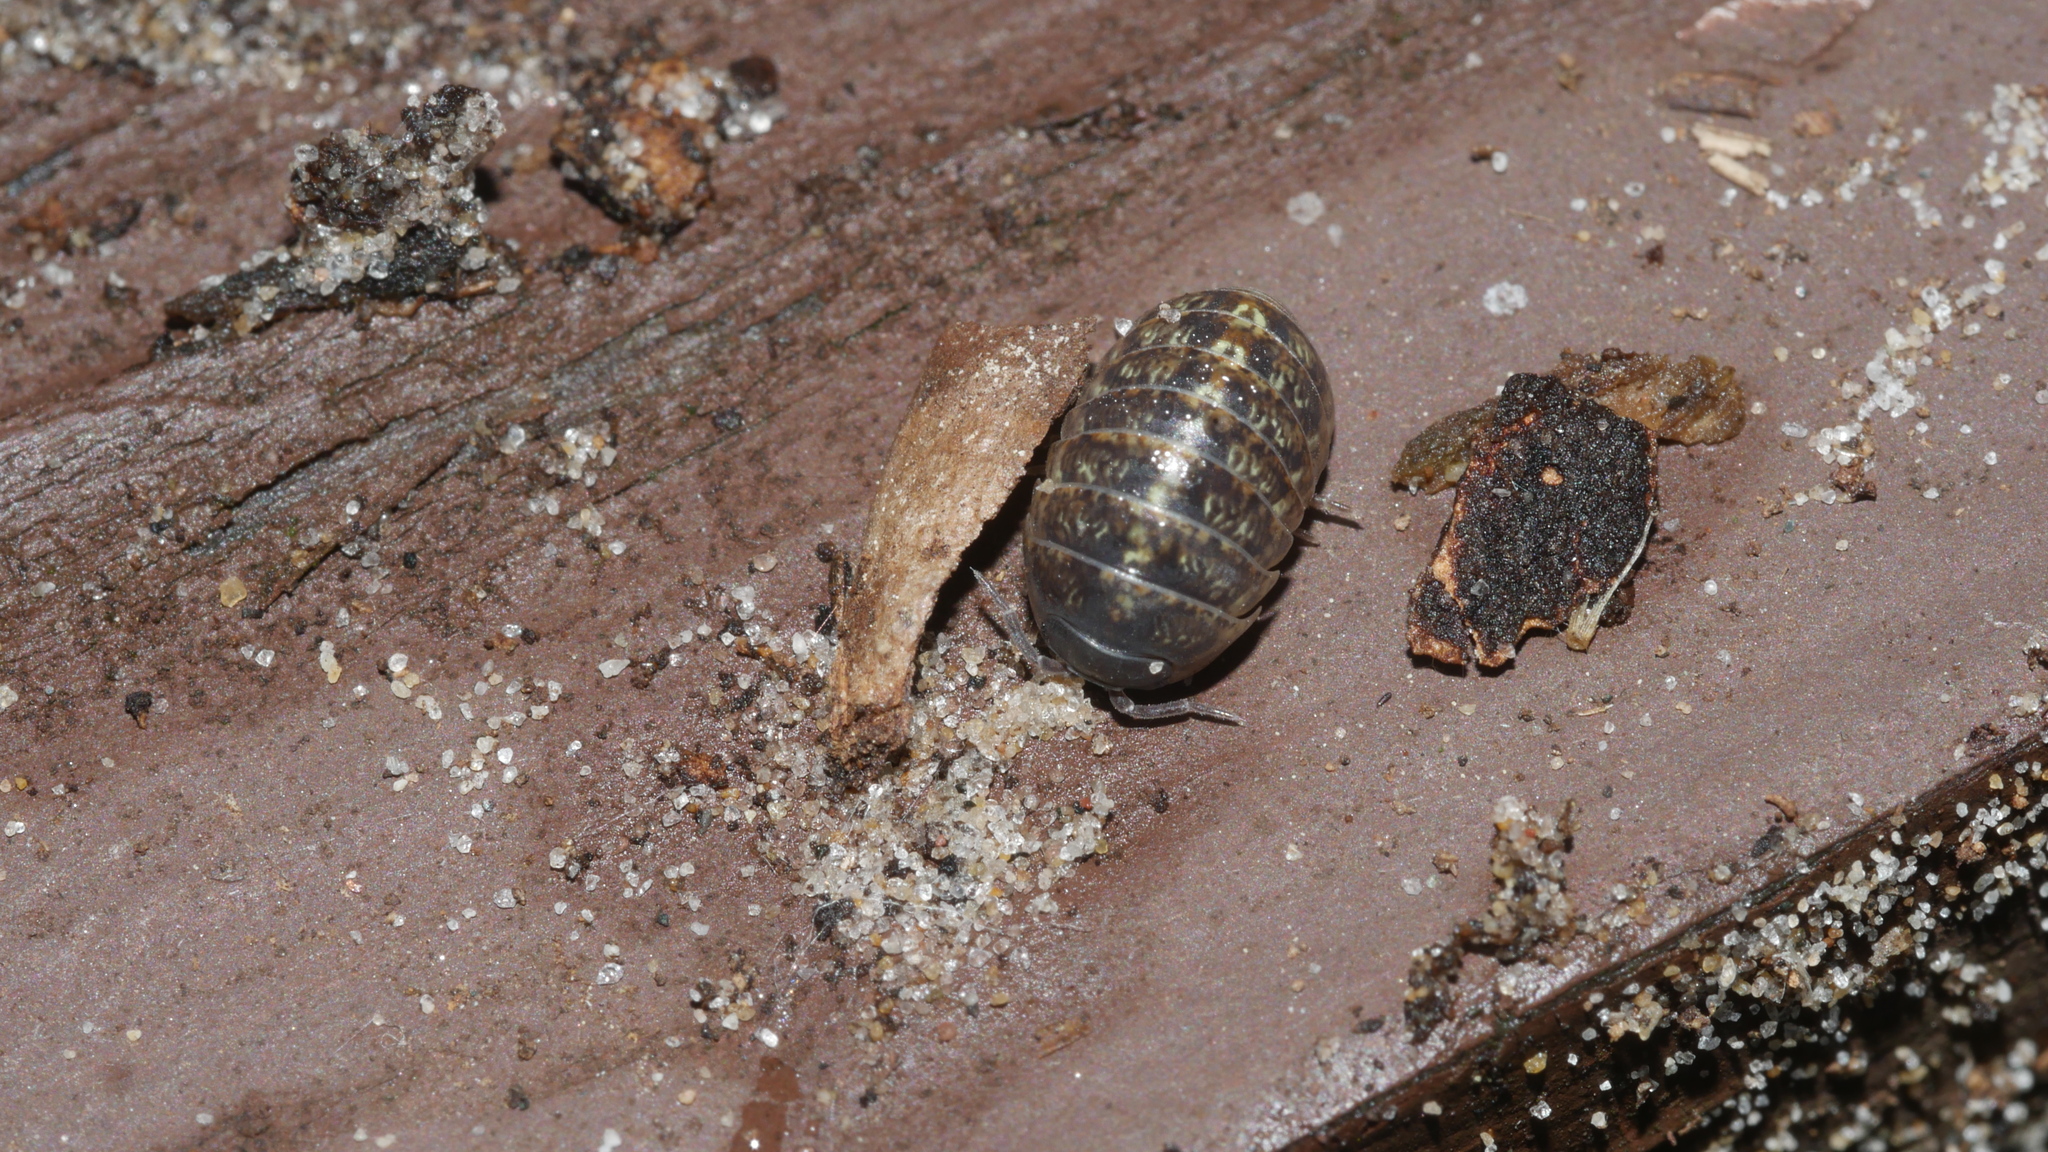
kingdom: Animalia
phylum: Arthropoda
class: Malacostraca
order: Isopoda
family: Armadillidiidae
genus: Armadillidium
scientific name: Armadillidium vulgare
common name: Common pill woodlouse
